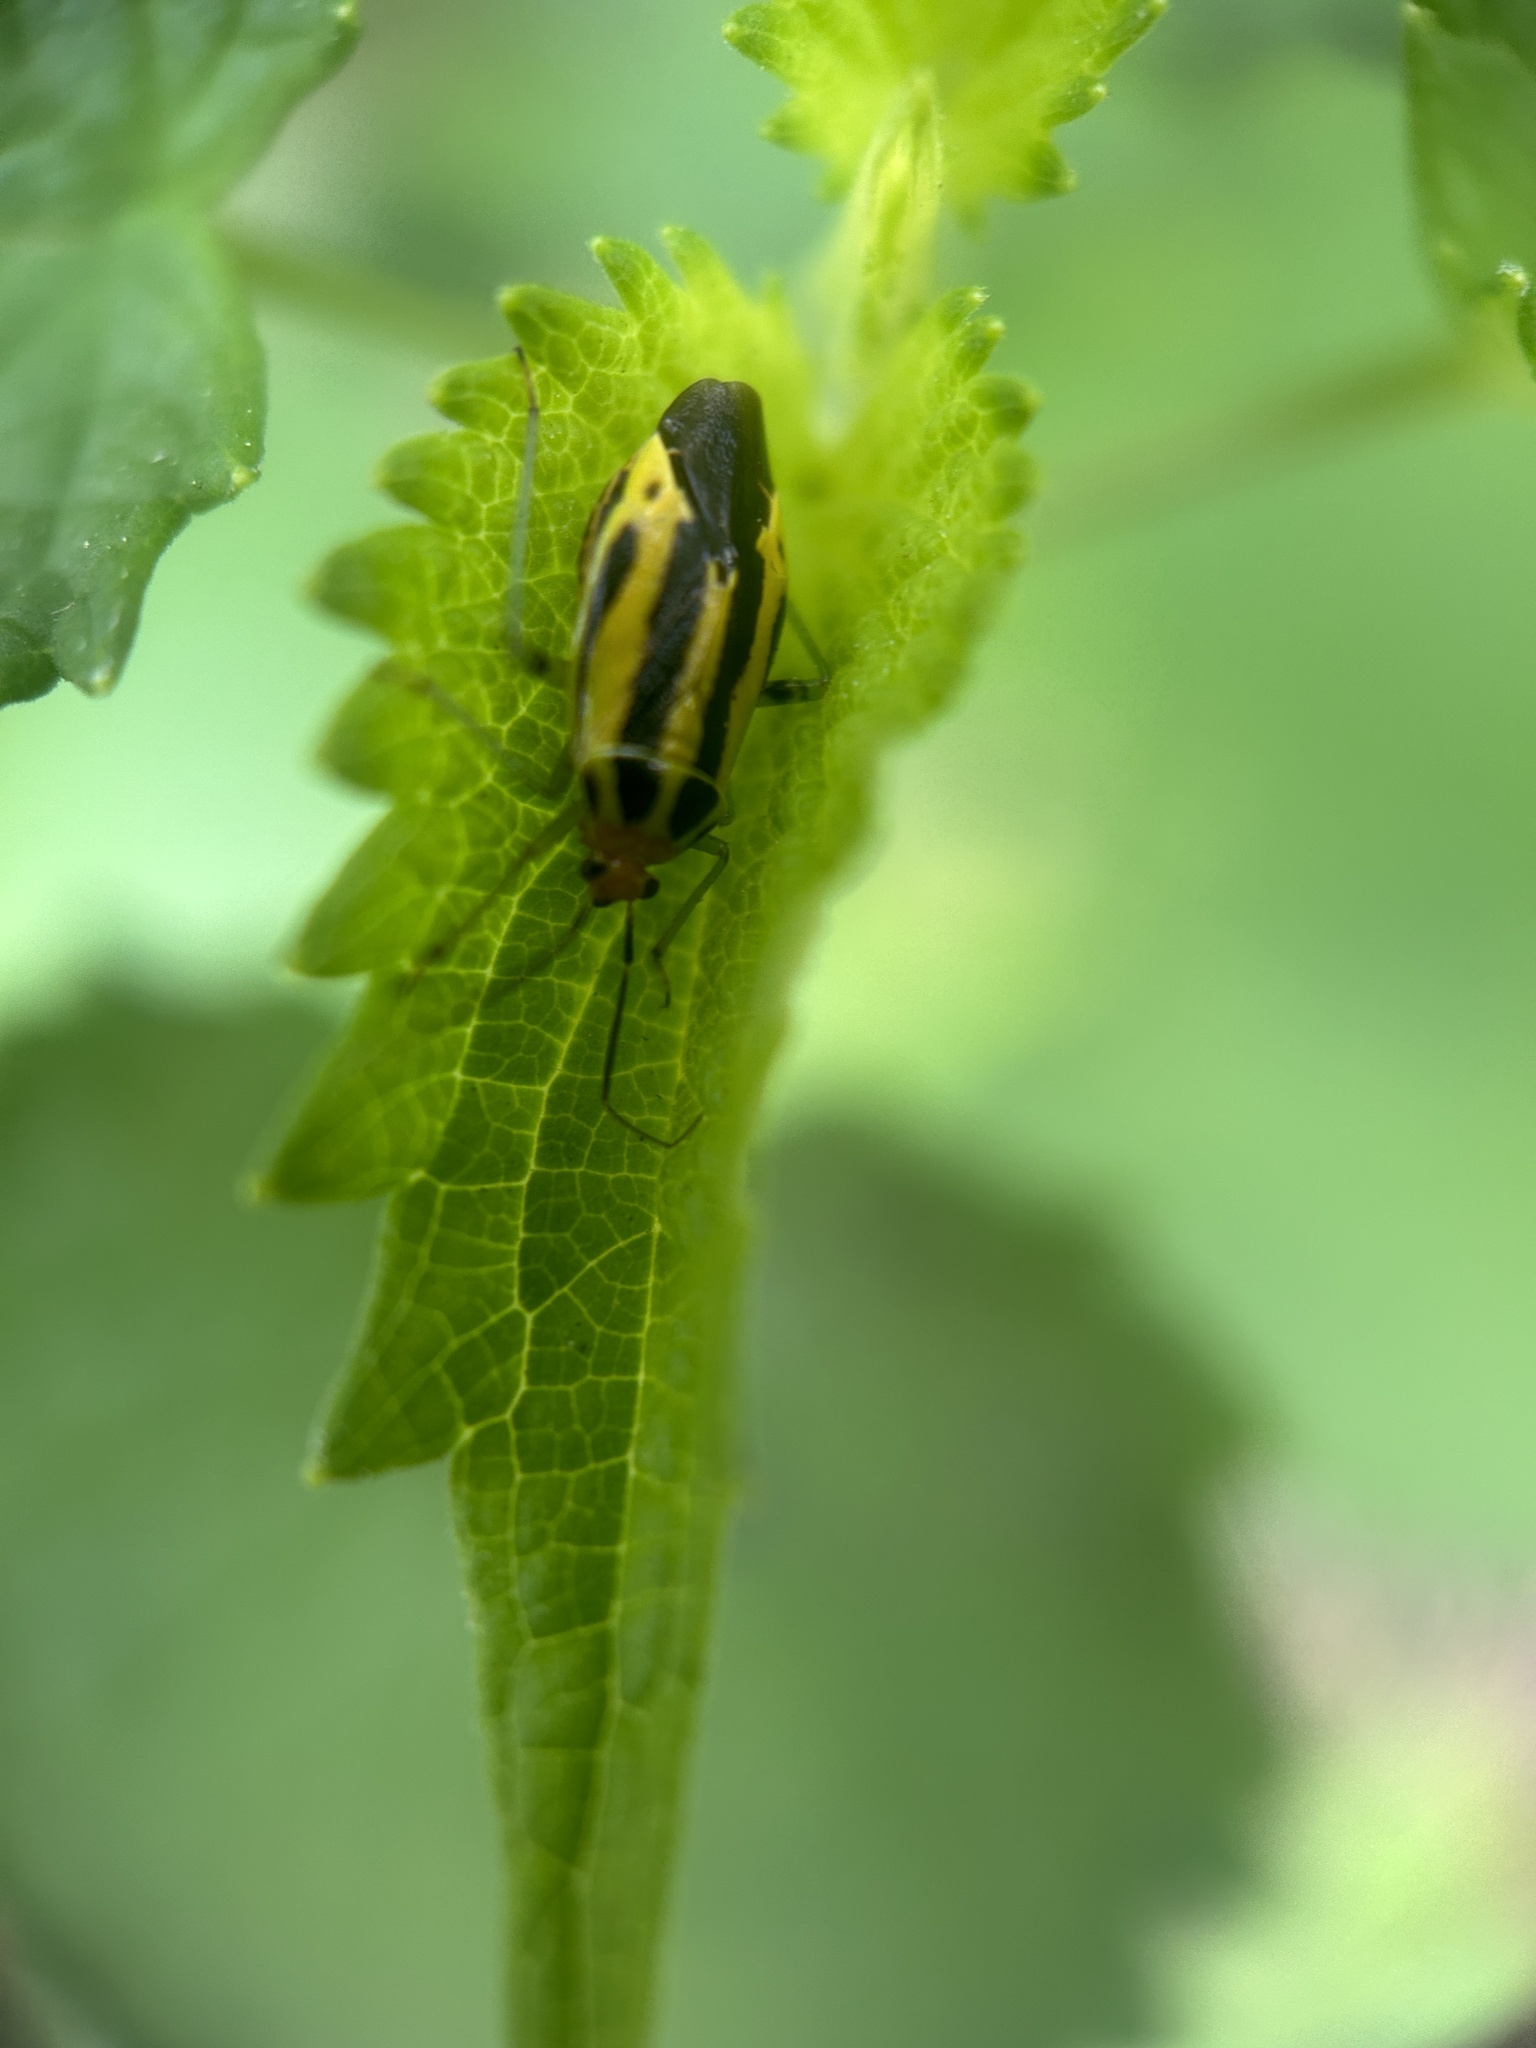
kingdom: Animalia
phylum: Arthropoda
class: Insecta
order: Hemiptera
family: Miridae
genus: Poecilocapsus
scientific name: Poecilocapsus lineatus
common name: Four-lined plant bug
